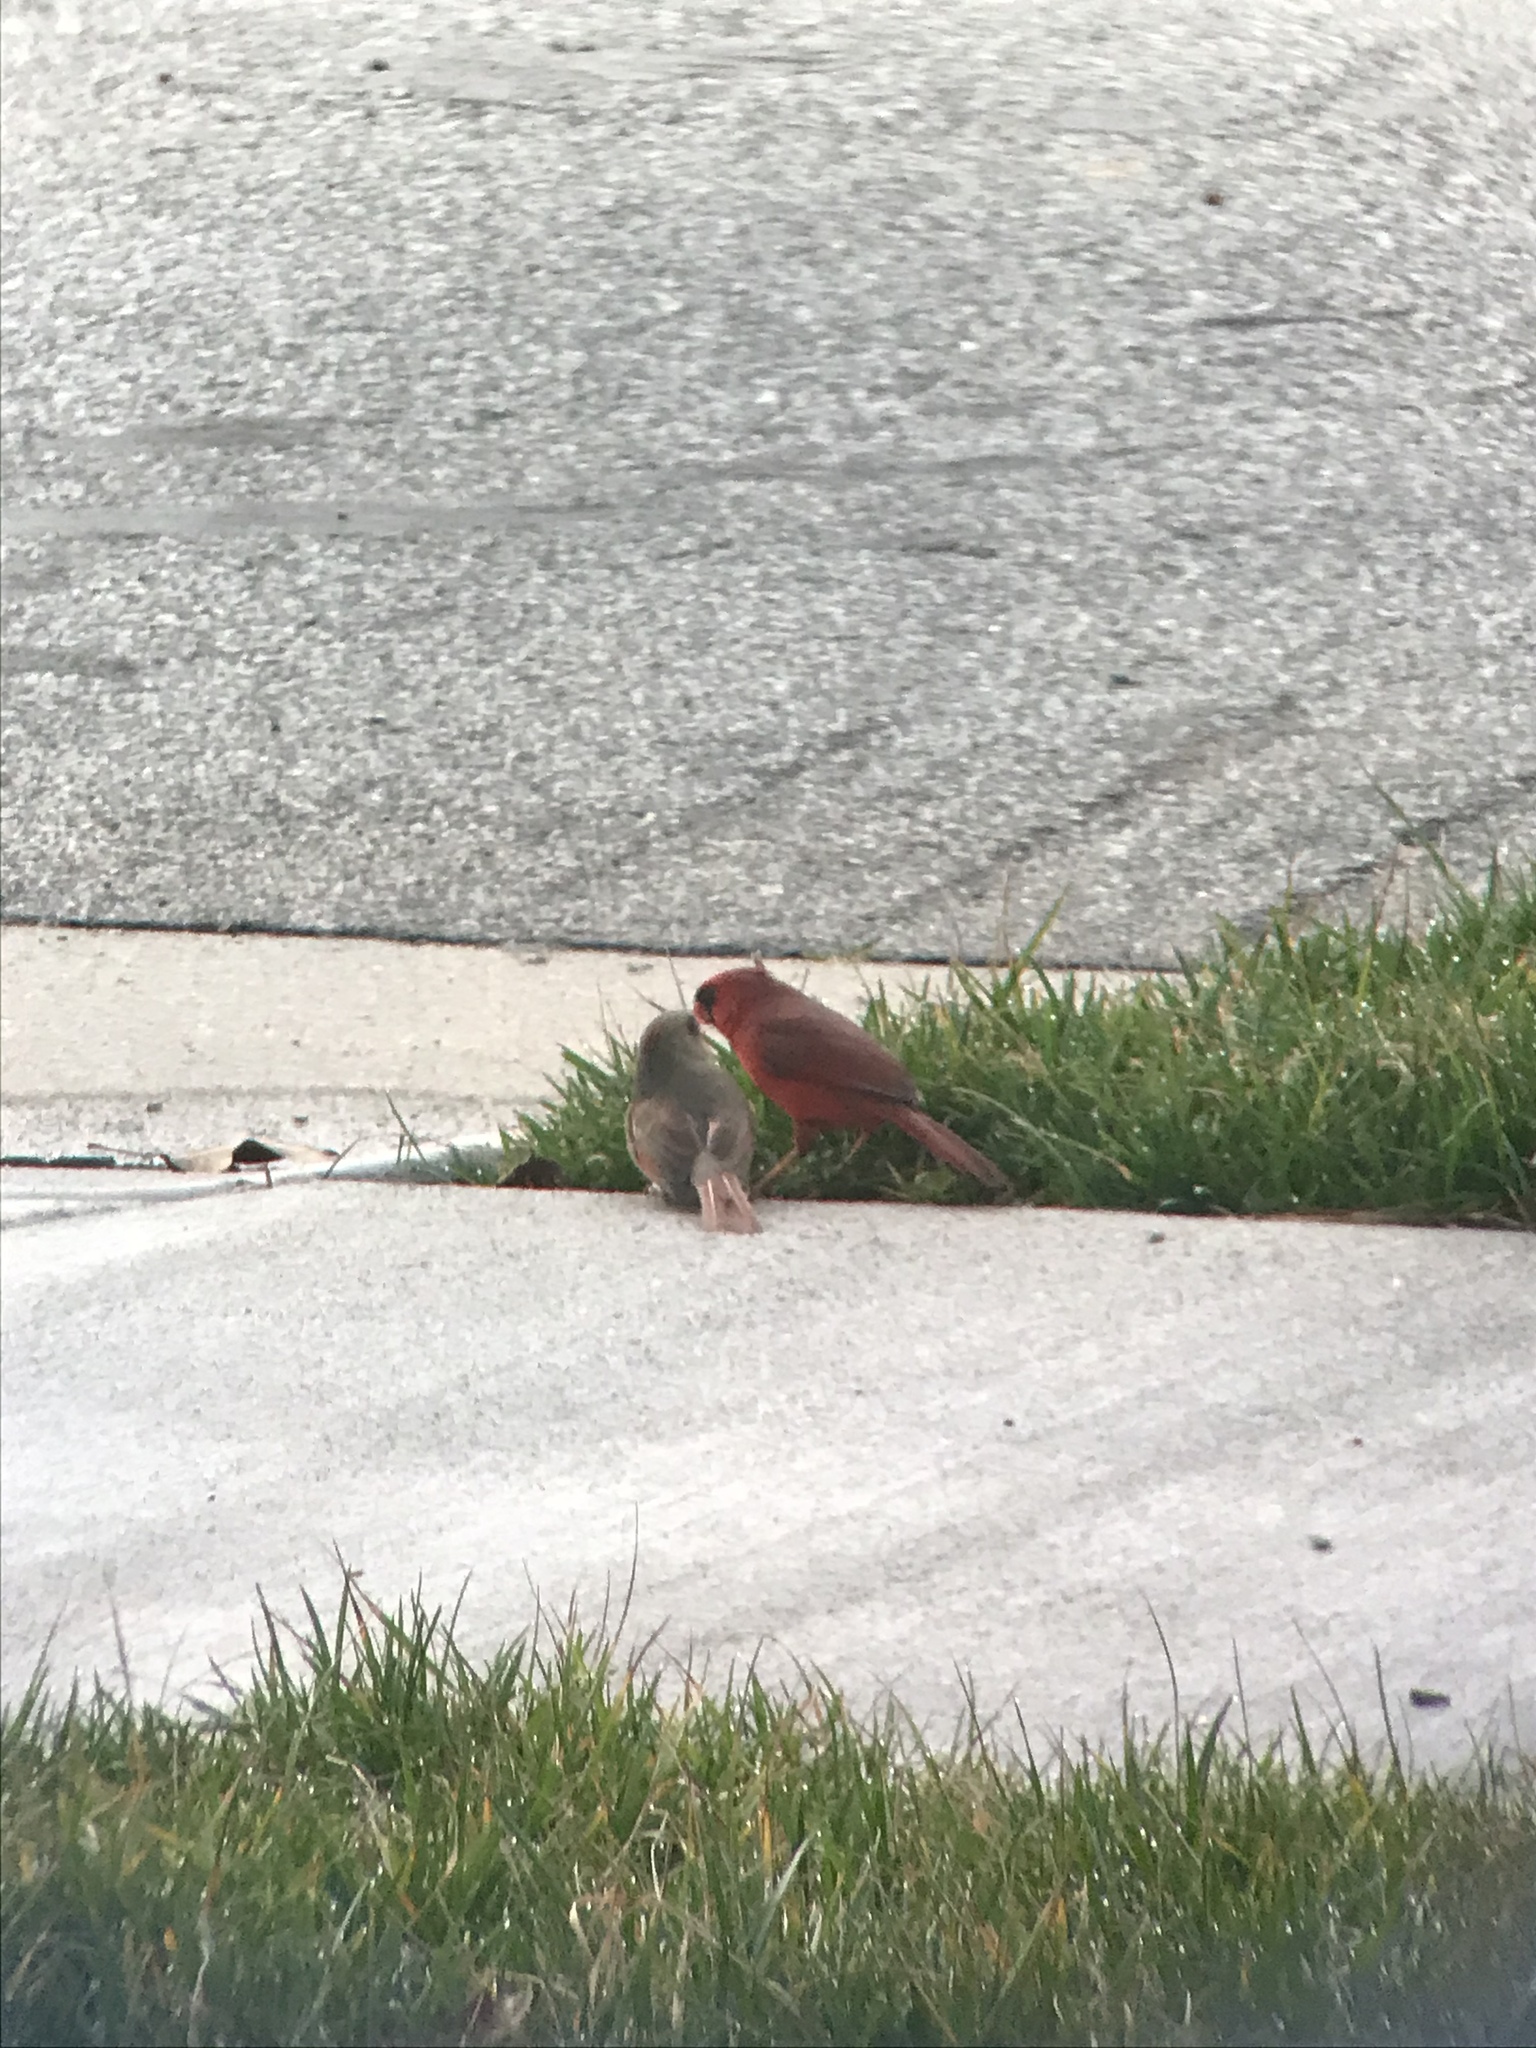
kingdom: Animalia
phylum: Chordata
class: Aves
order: Passeriformes
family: Cardinalidae
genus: Cardinalis
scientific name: Cardinalis cardinalis
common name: Northern cardinal
